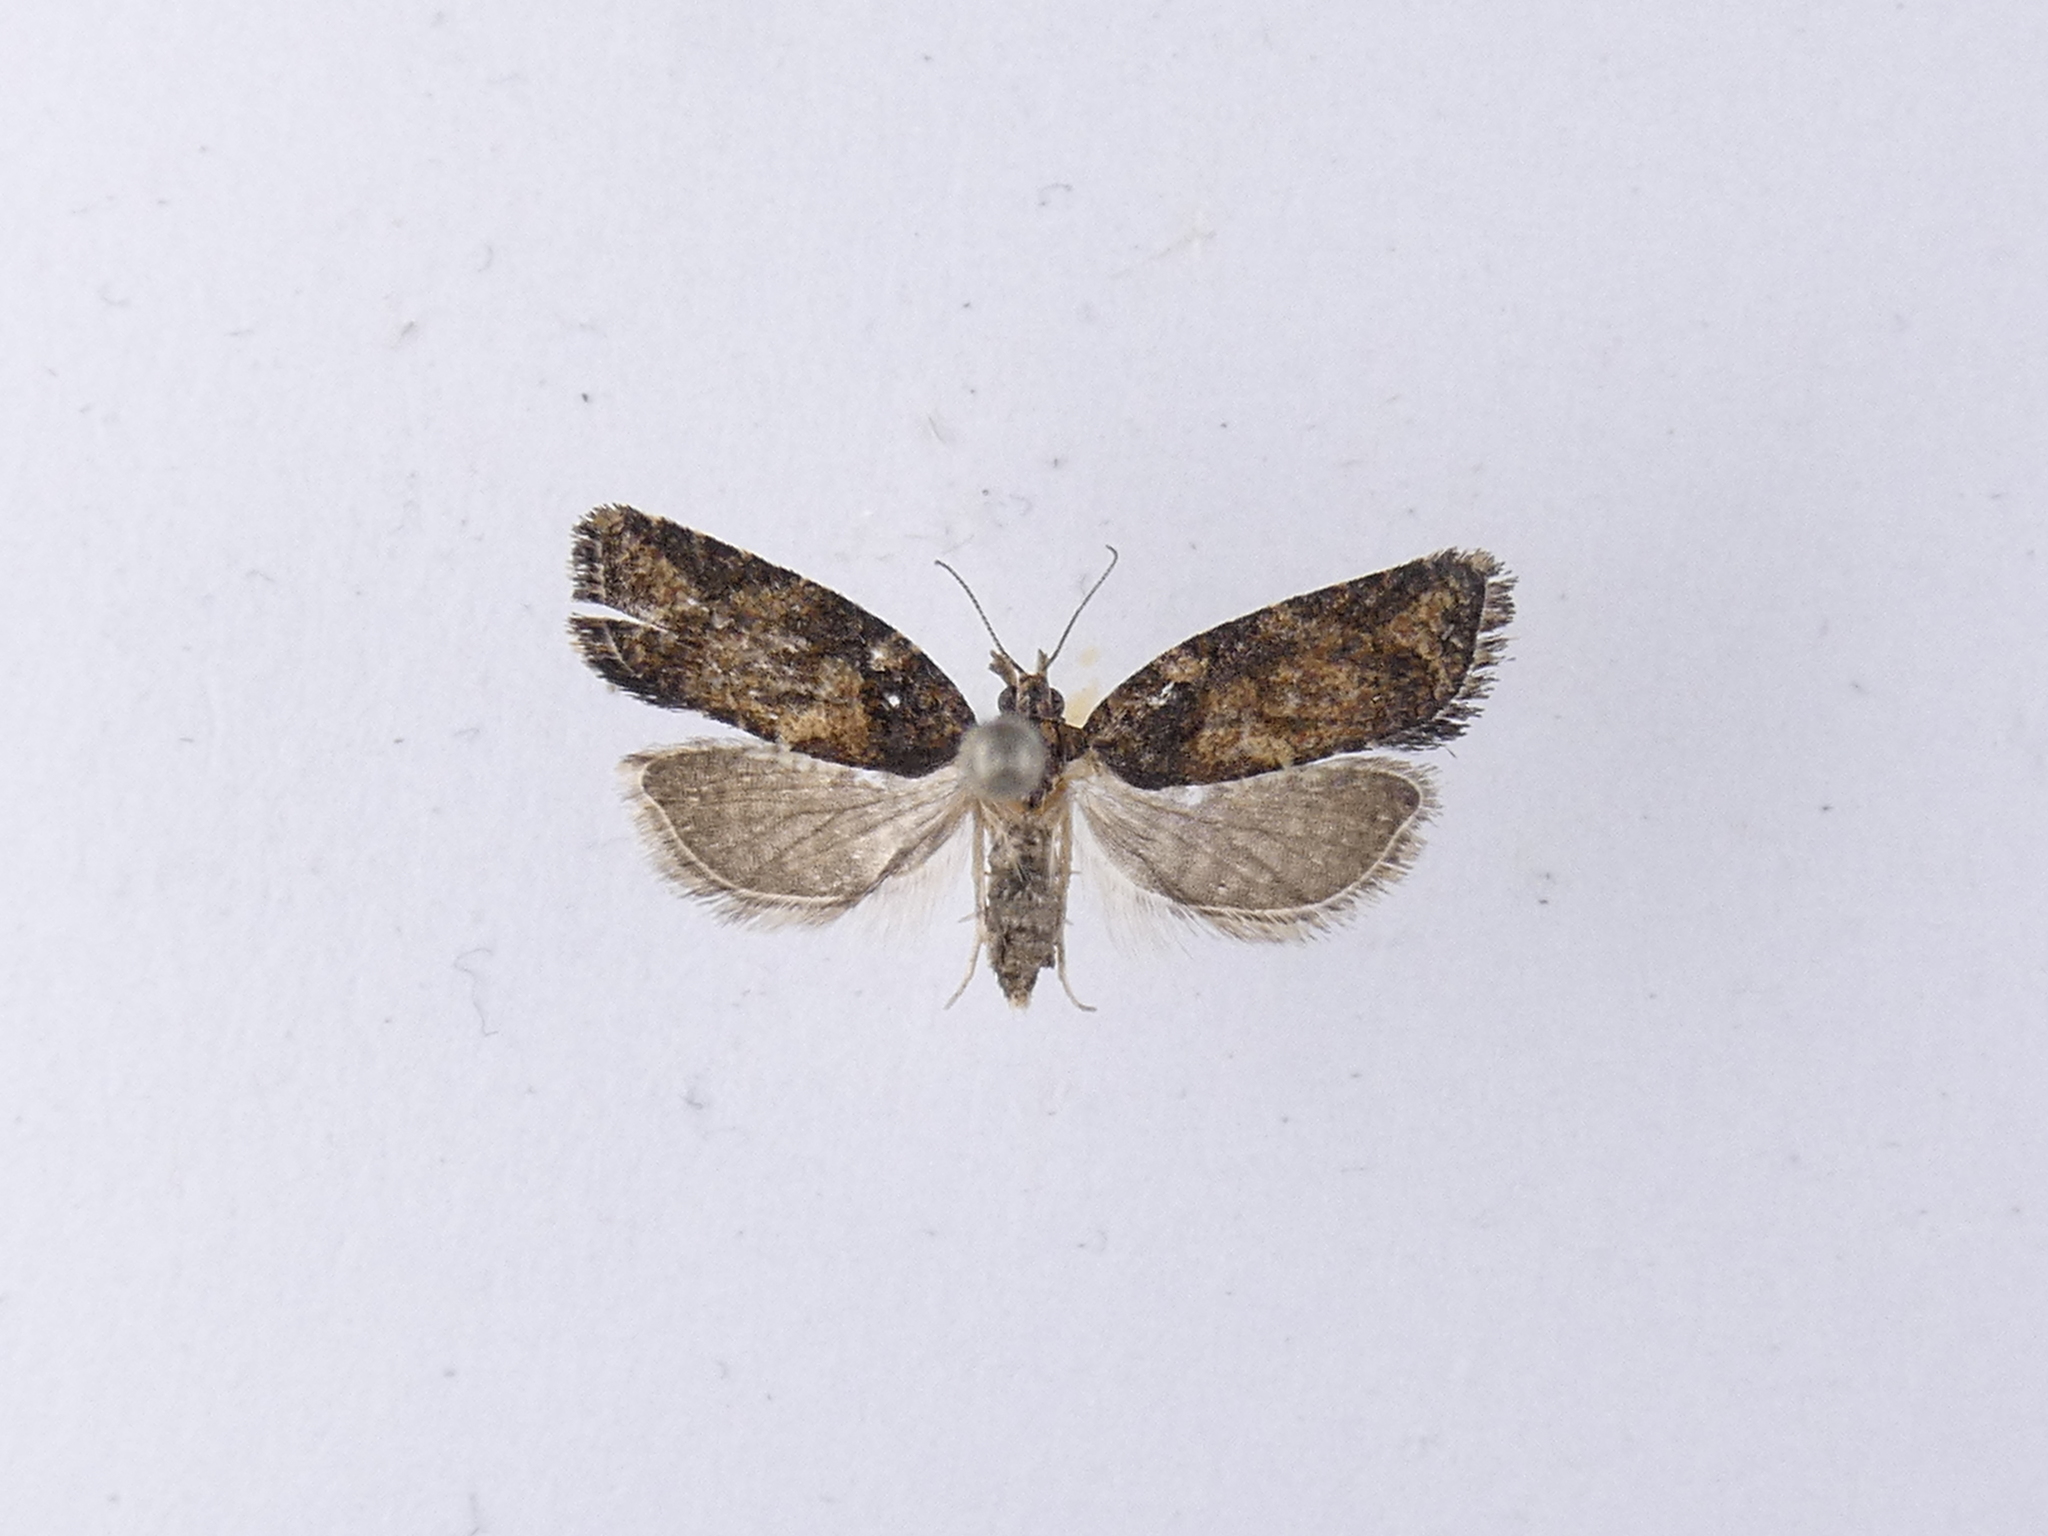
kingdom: Animalia
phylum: Arthropoda
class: Insecta
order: Lepidoptera
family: Tortricidae
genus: Capua
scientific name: Capua intractana
